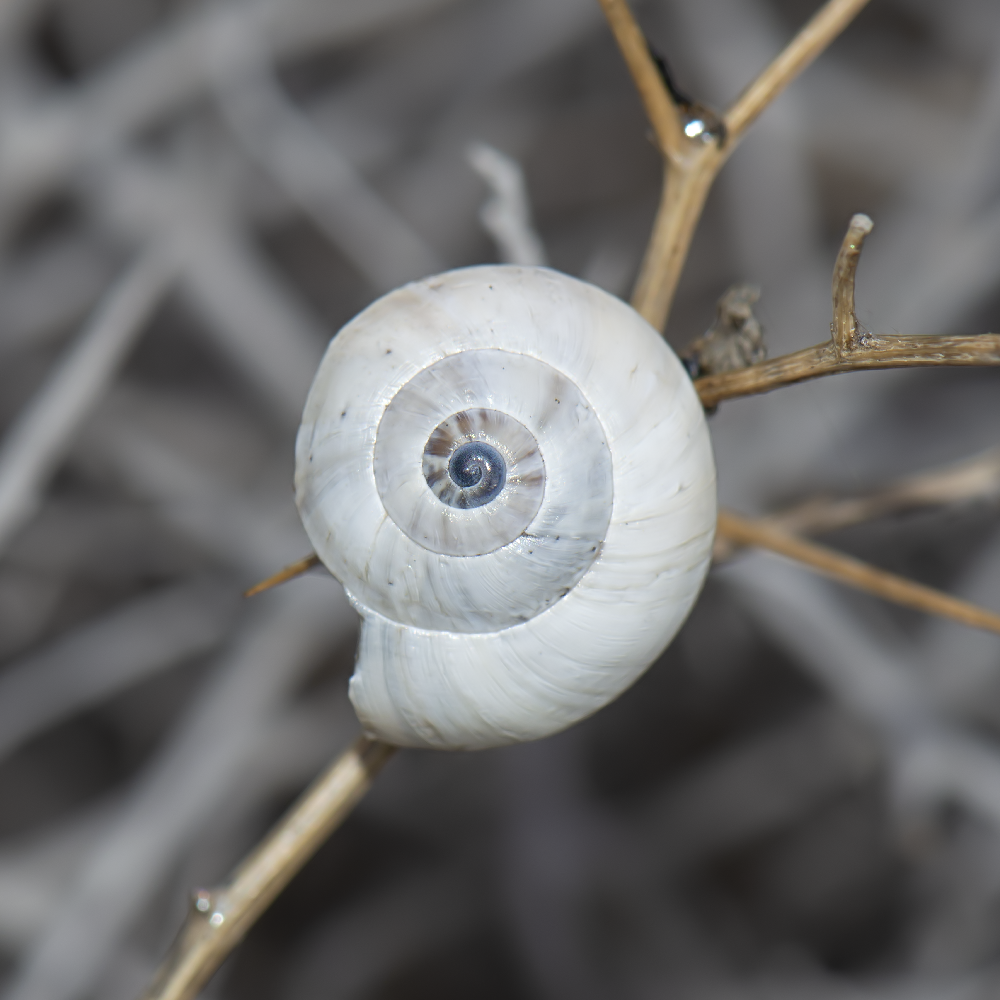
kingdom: Animalia
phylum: Mollusca
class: Gastropoda
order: Stylommatophora
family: Helicidae
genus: Theba
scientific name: Theba pisana
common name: White snail
